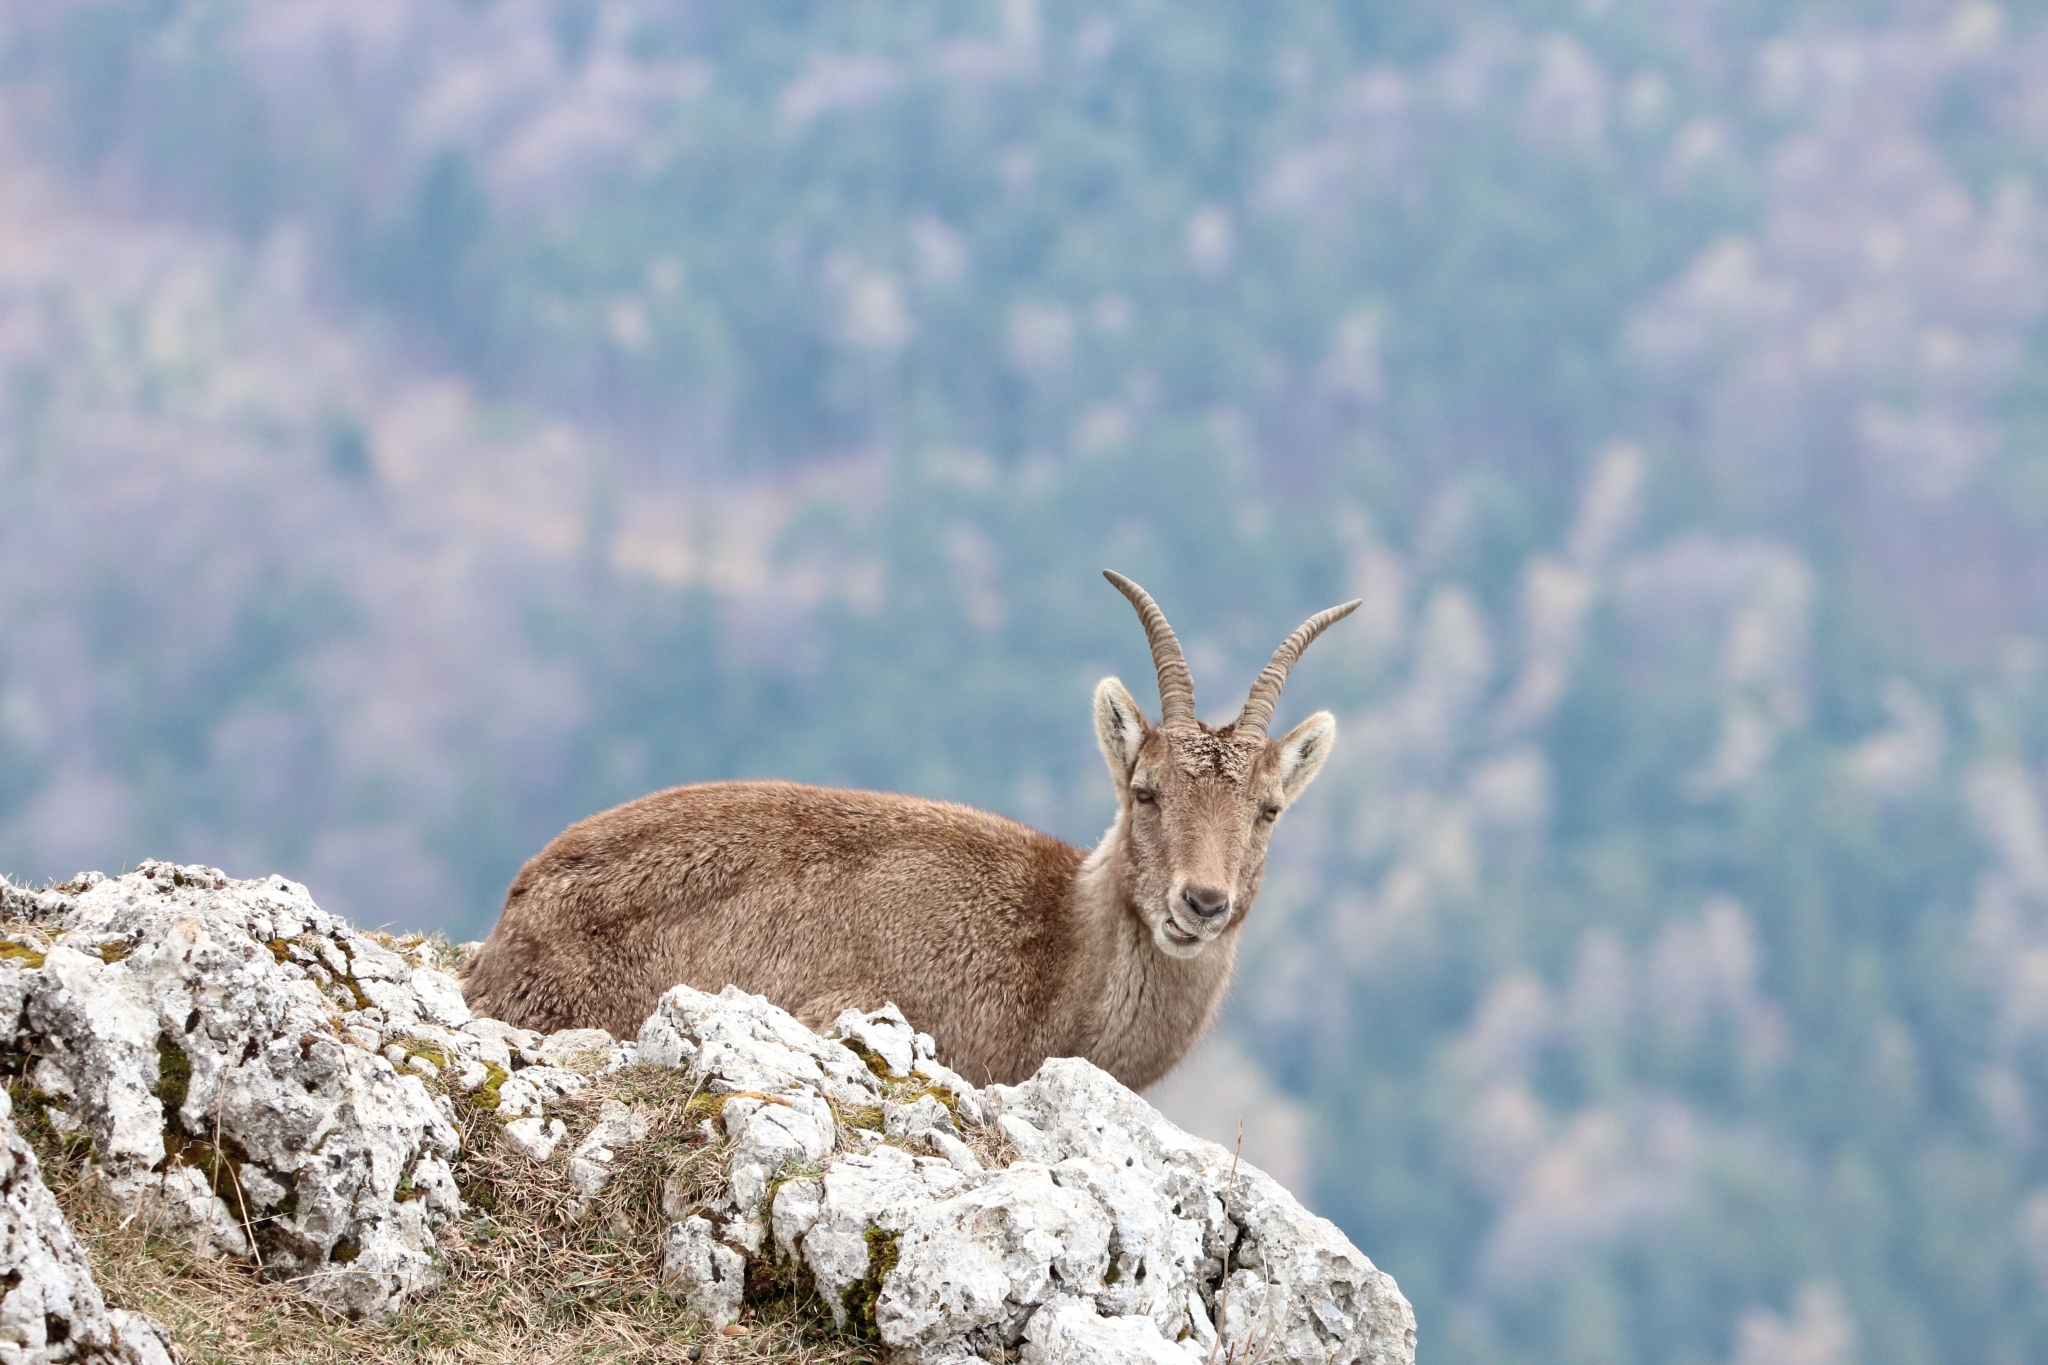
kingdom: Animalia
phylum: Chordata
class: Mammalia
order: Artiodactyla
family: Bovidae
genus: Capra
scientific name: Capra ibex
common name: Alpine ibex
